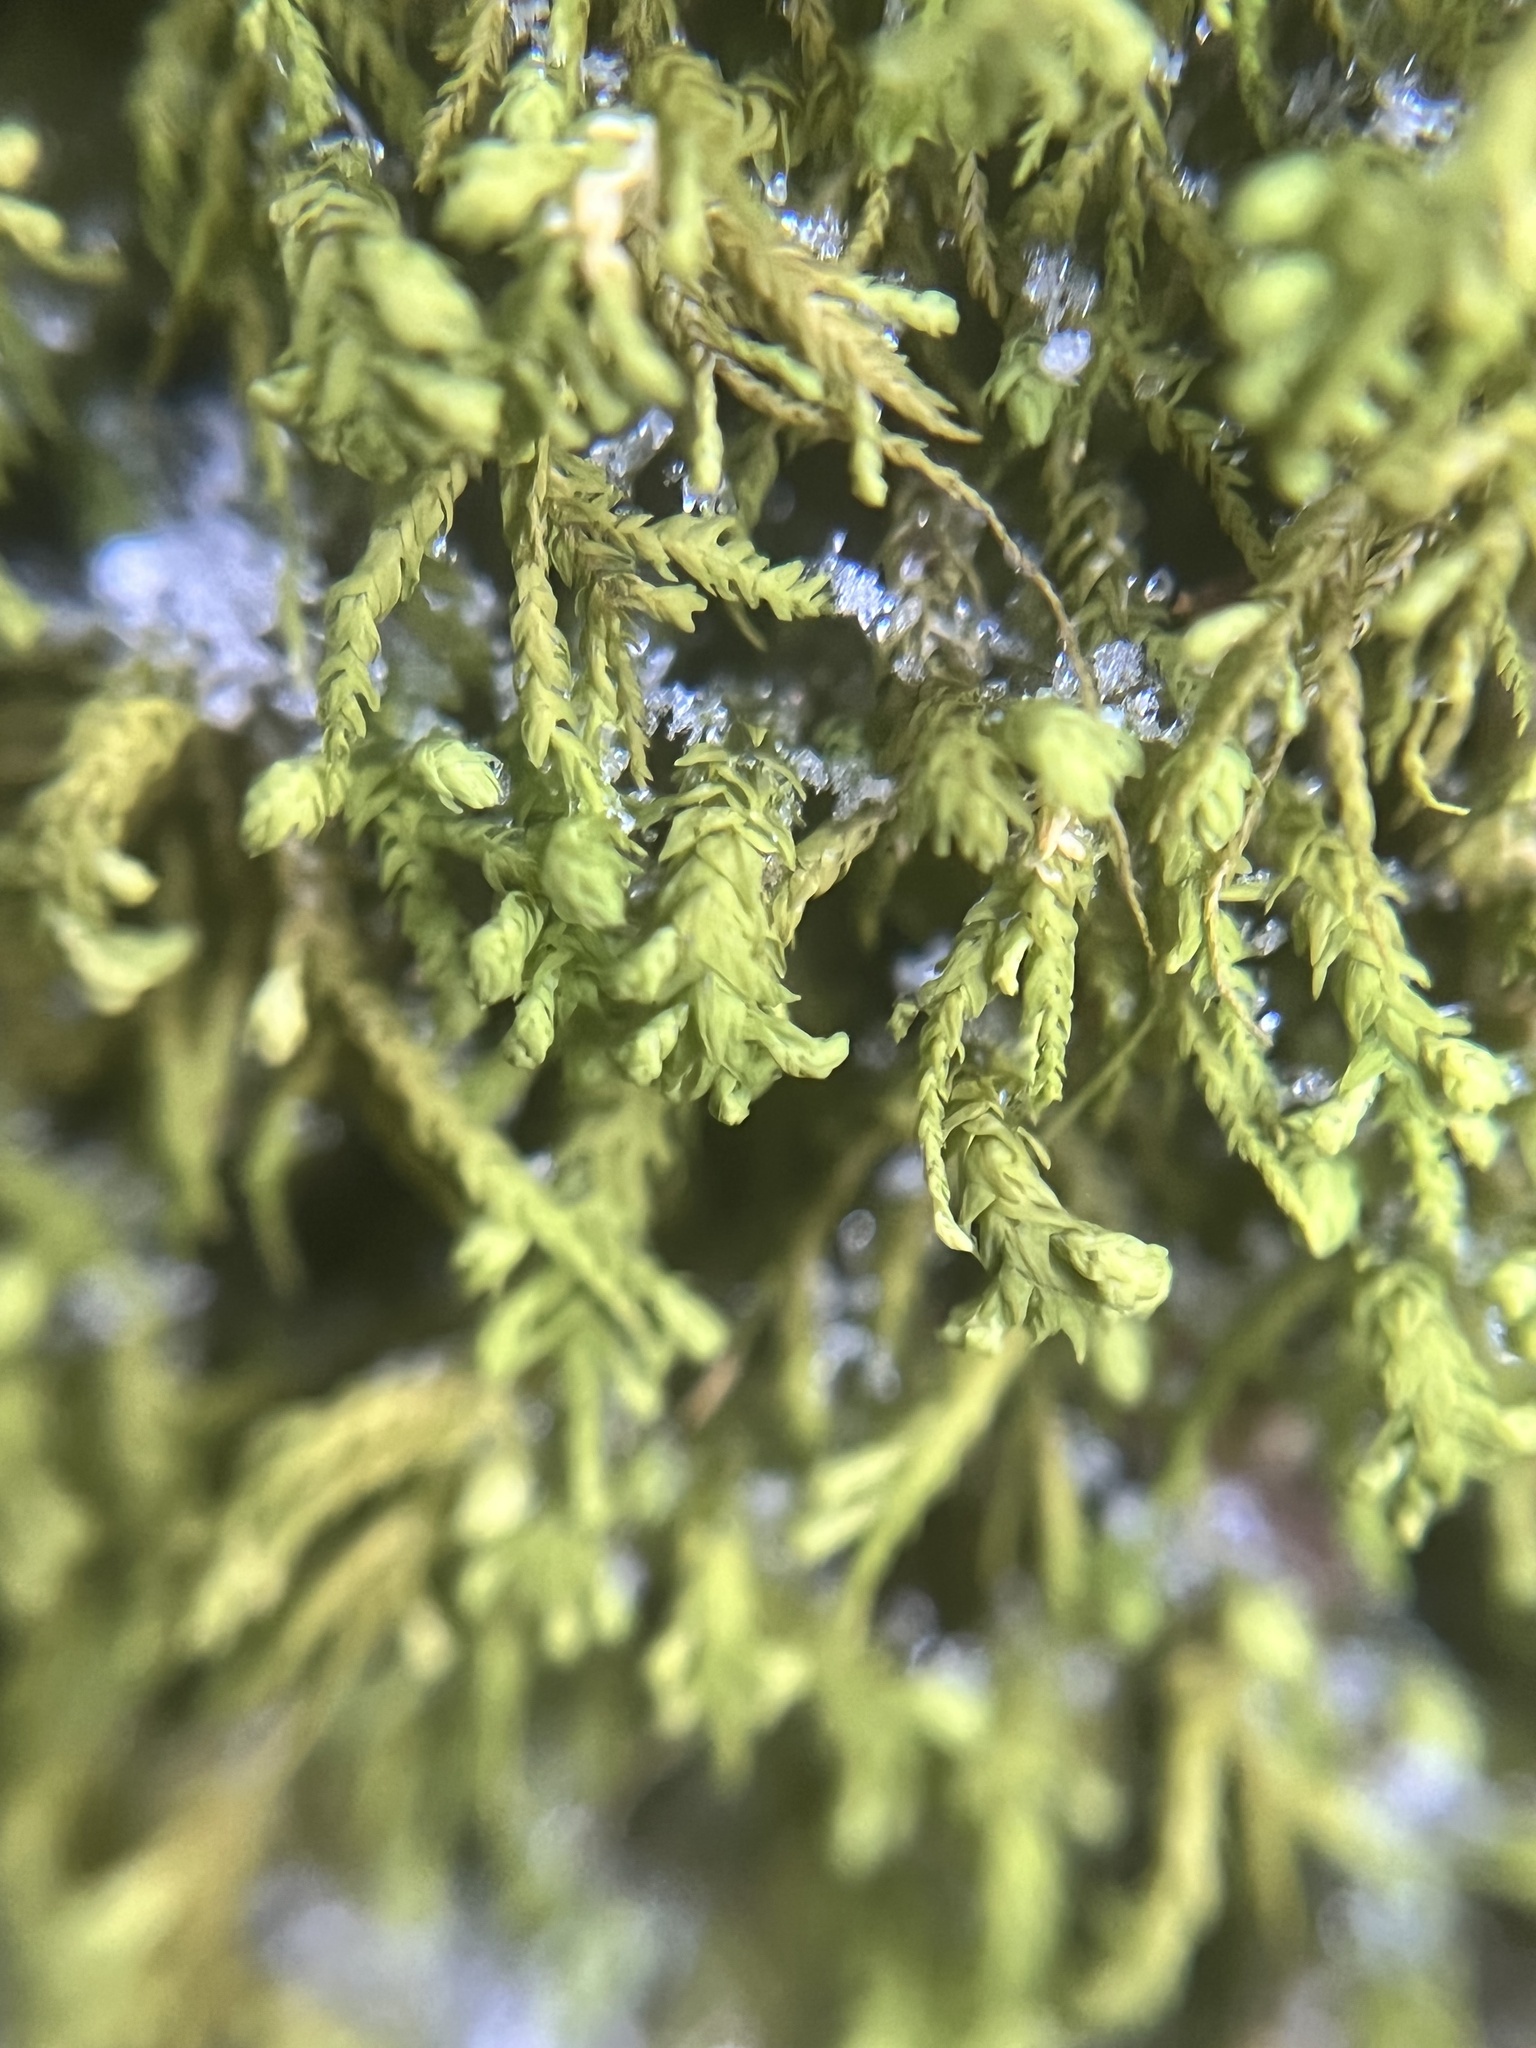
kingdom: Plantae
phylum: Bryophyta
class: Bryopsida
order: Hypnales
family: Neckeraceae
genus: Pseudanomodon
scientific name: Pseudanomodon attenuatus
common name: Tree-skirt moss
